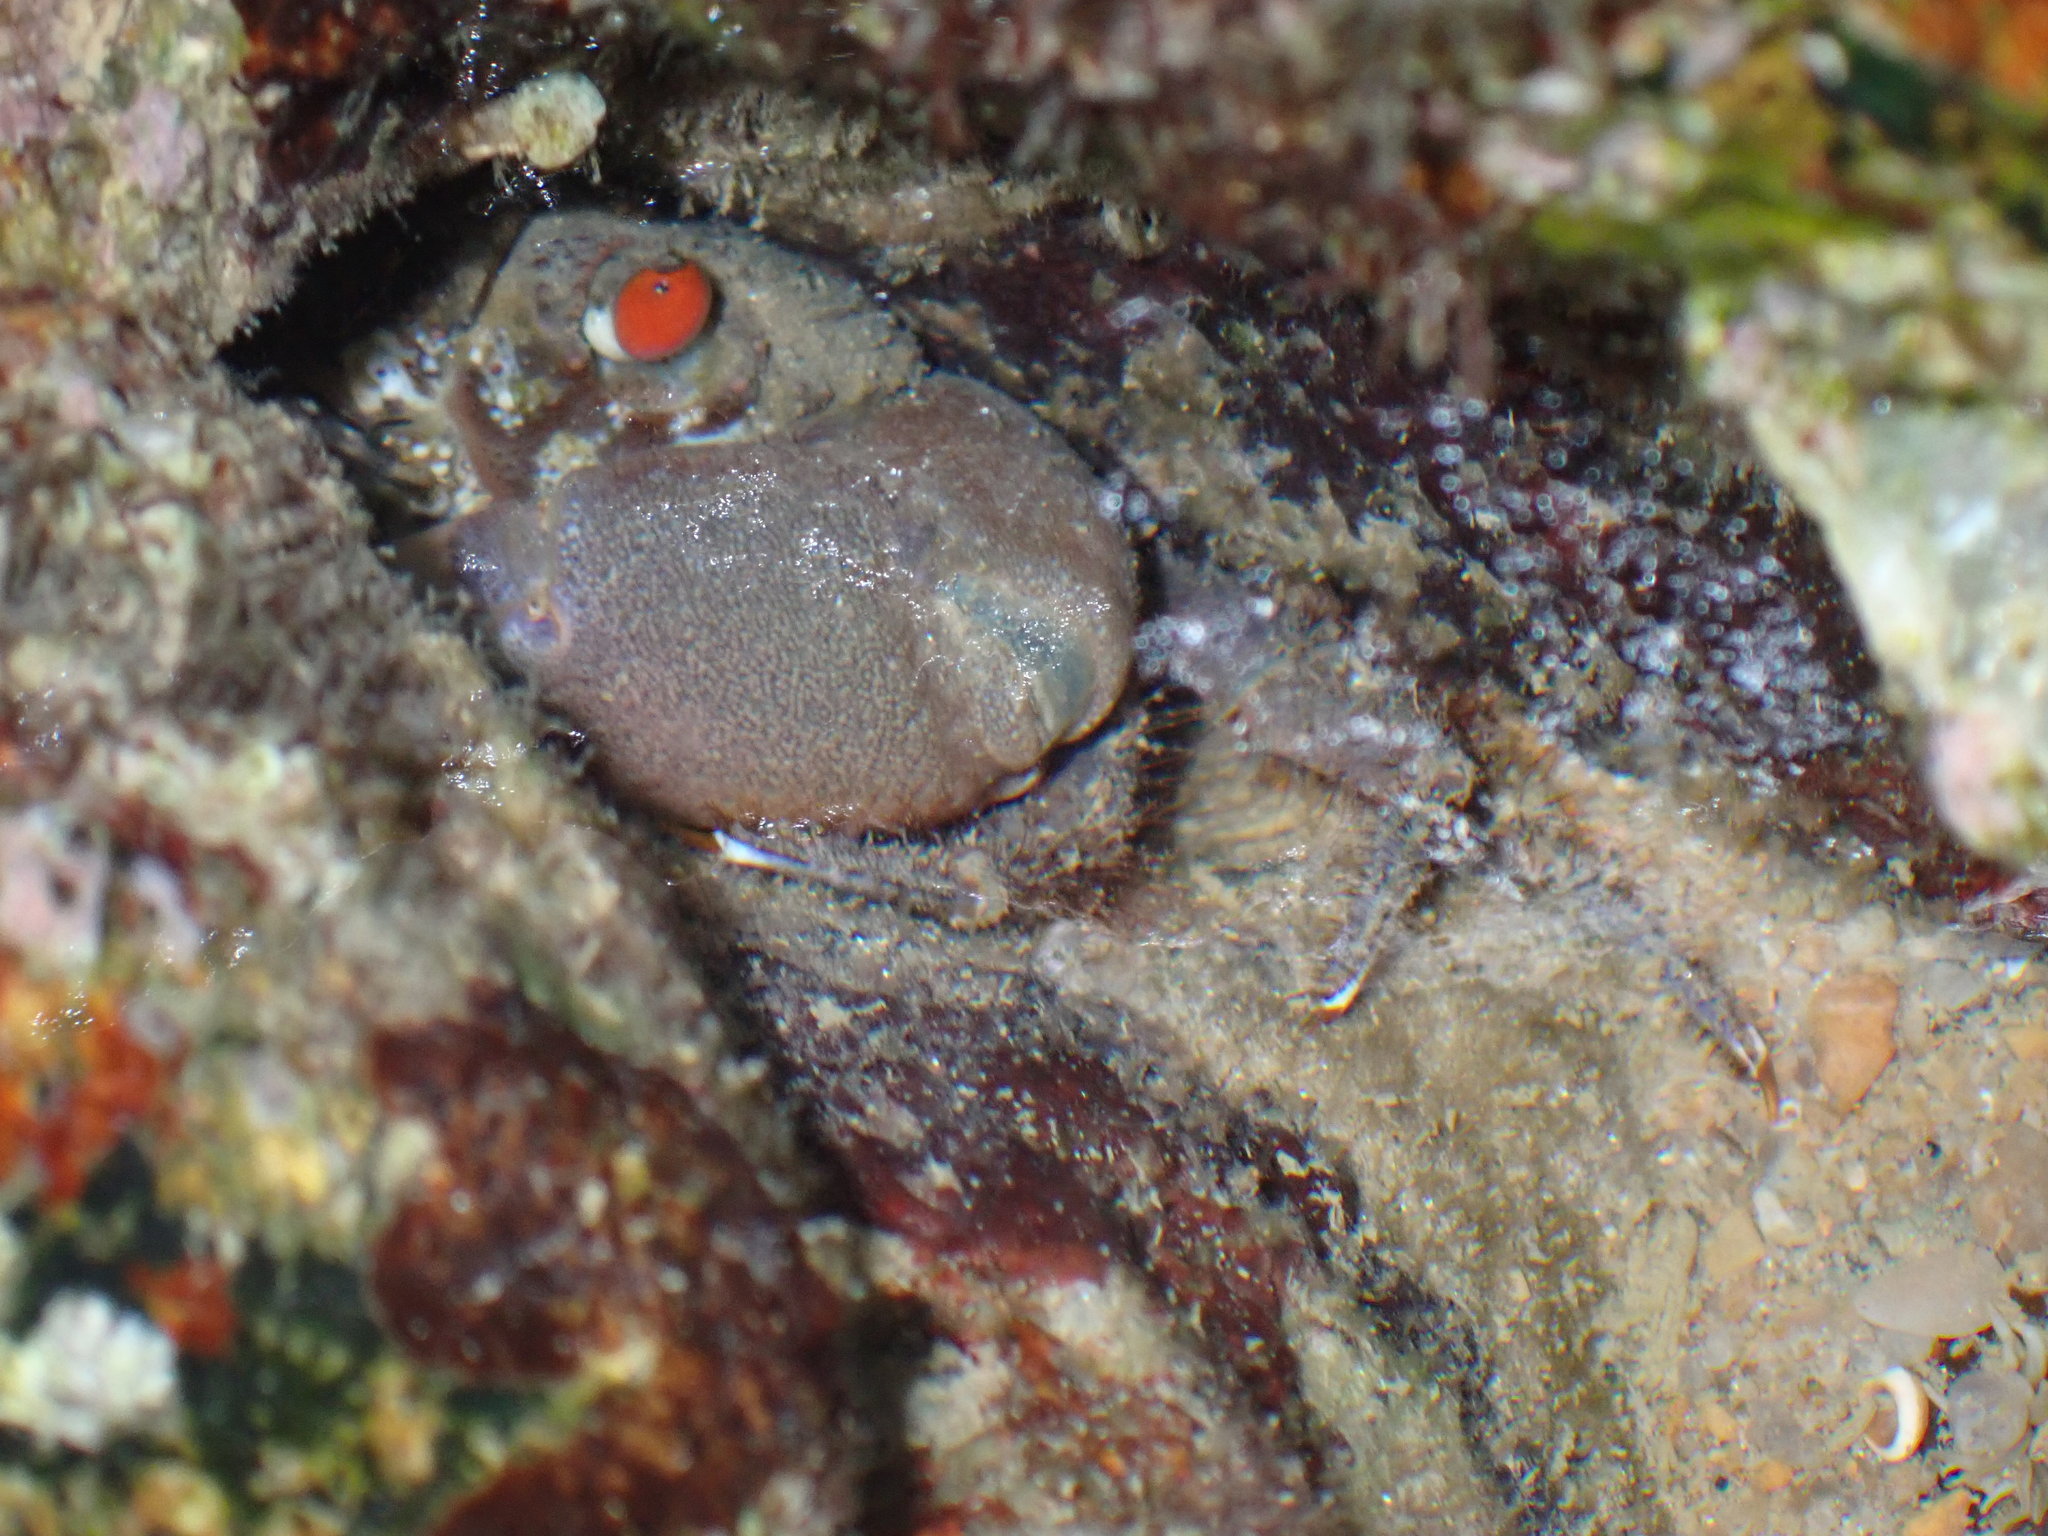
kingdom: Animalia
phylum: Arthropoda
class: Malacostraca
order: Decapoda
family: Eriphiidae
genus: Eriphia
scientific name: Eriphia sebana
